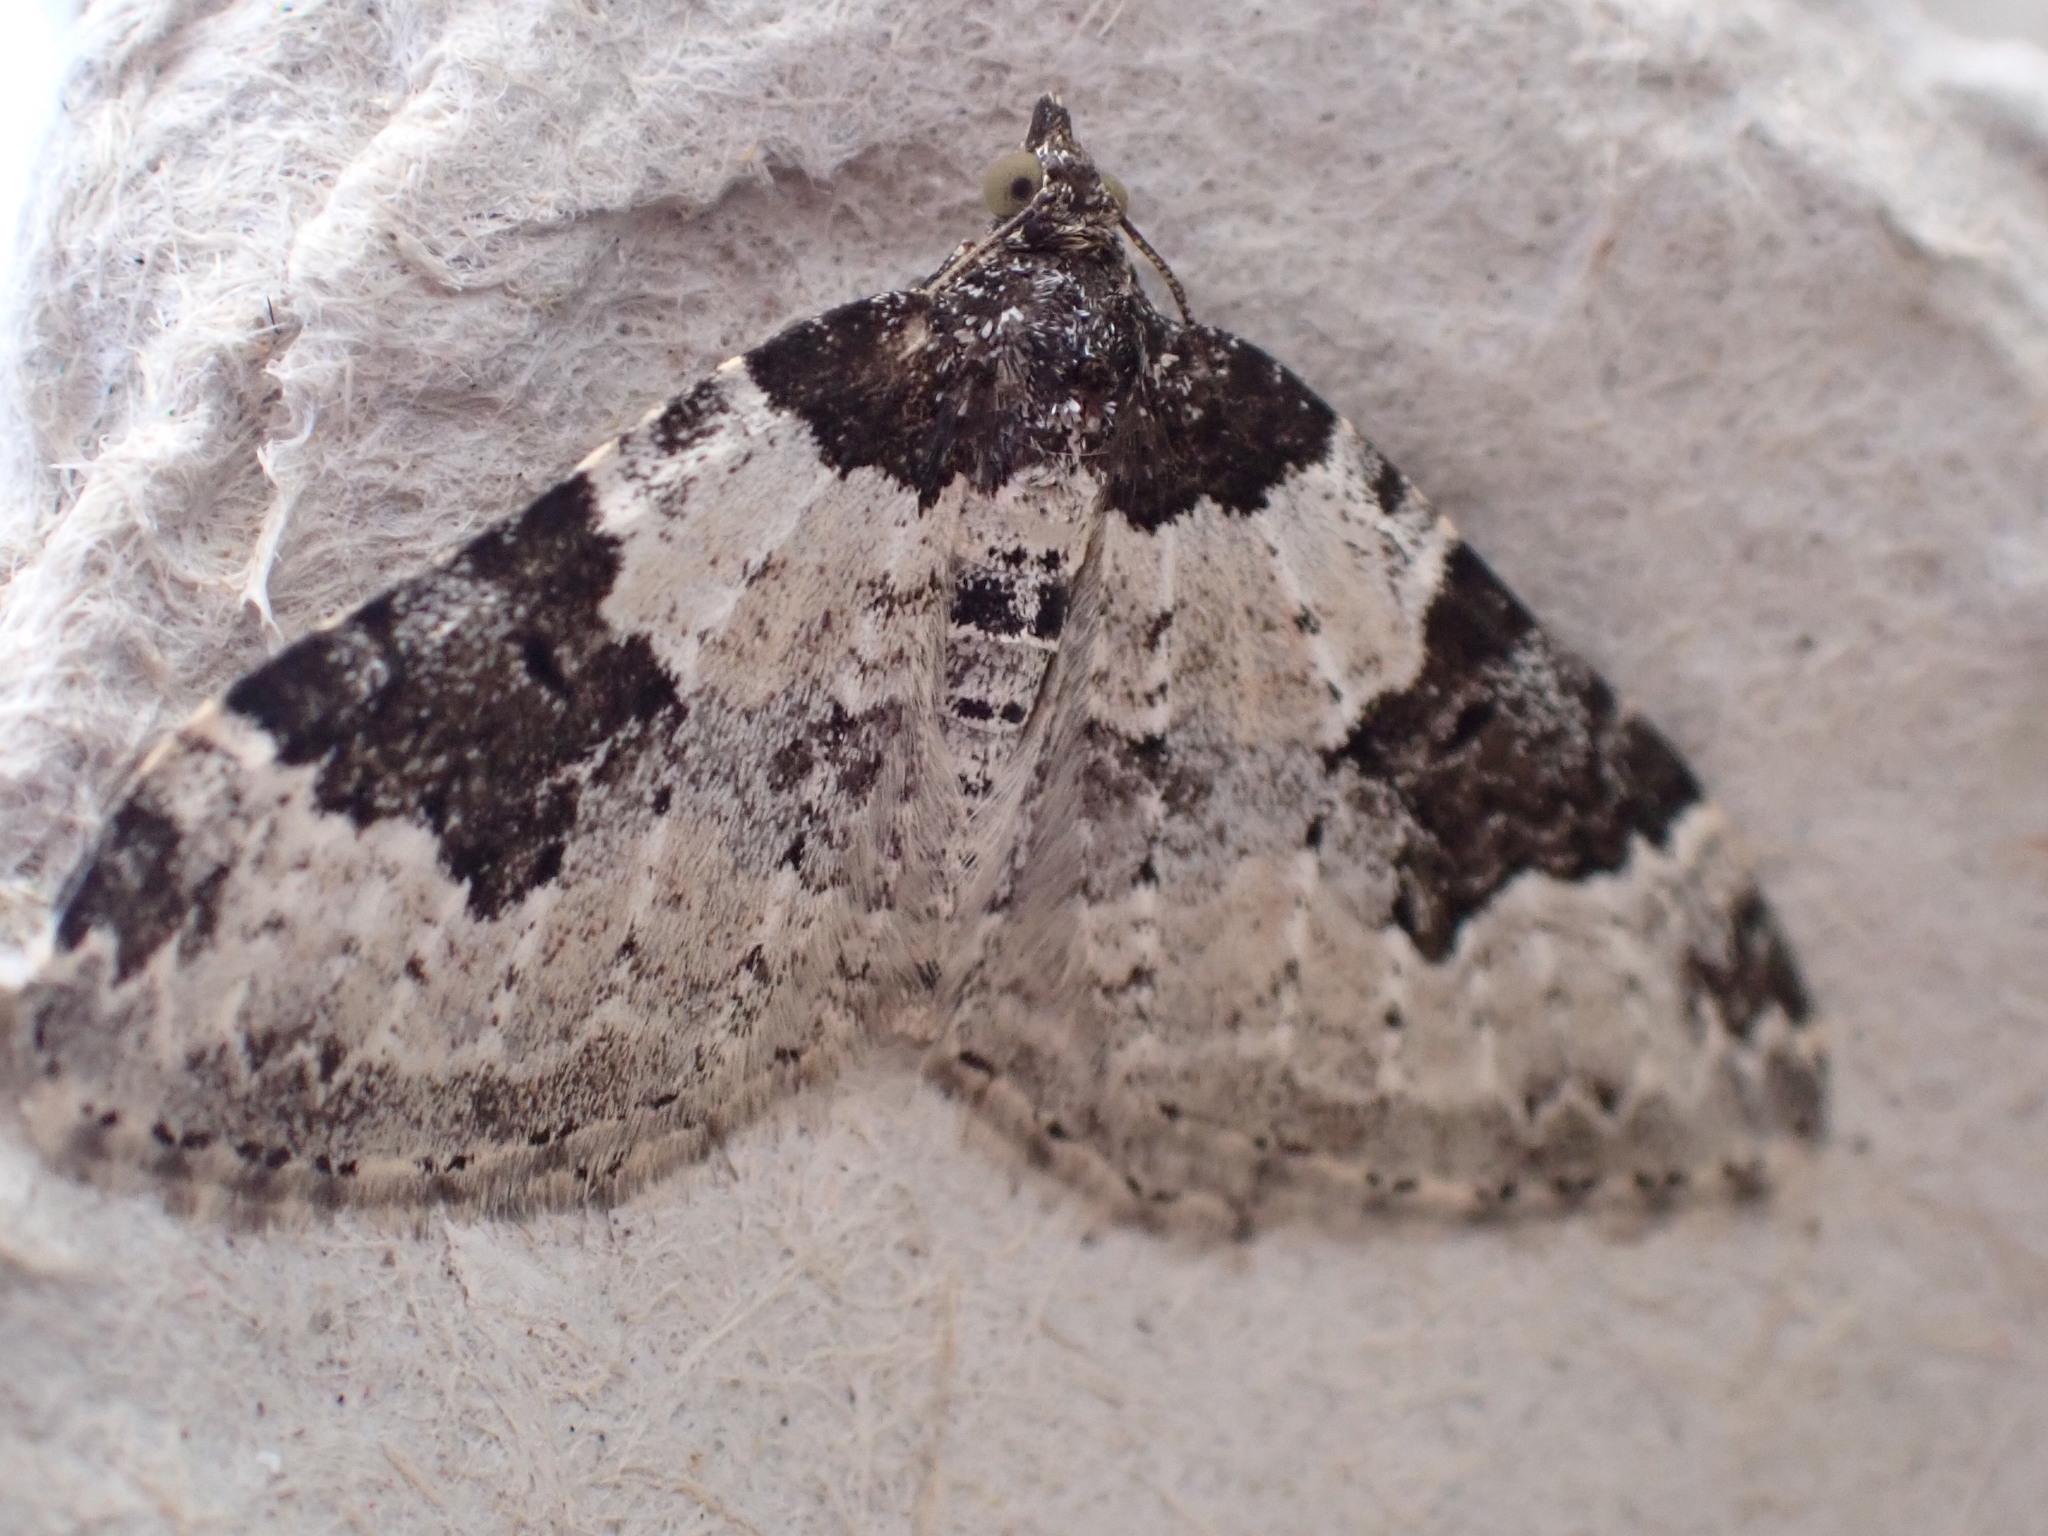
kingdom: Animalia
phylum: Arthropoda
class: Insecta
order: Lepidoptera
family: Geometridae
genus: Xanthorhoe
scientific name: Xanthorhoe fluctuata
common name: Garden carpet
